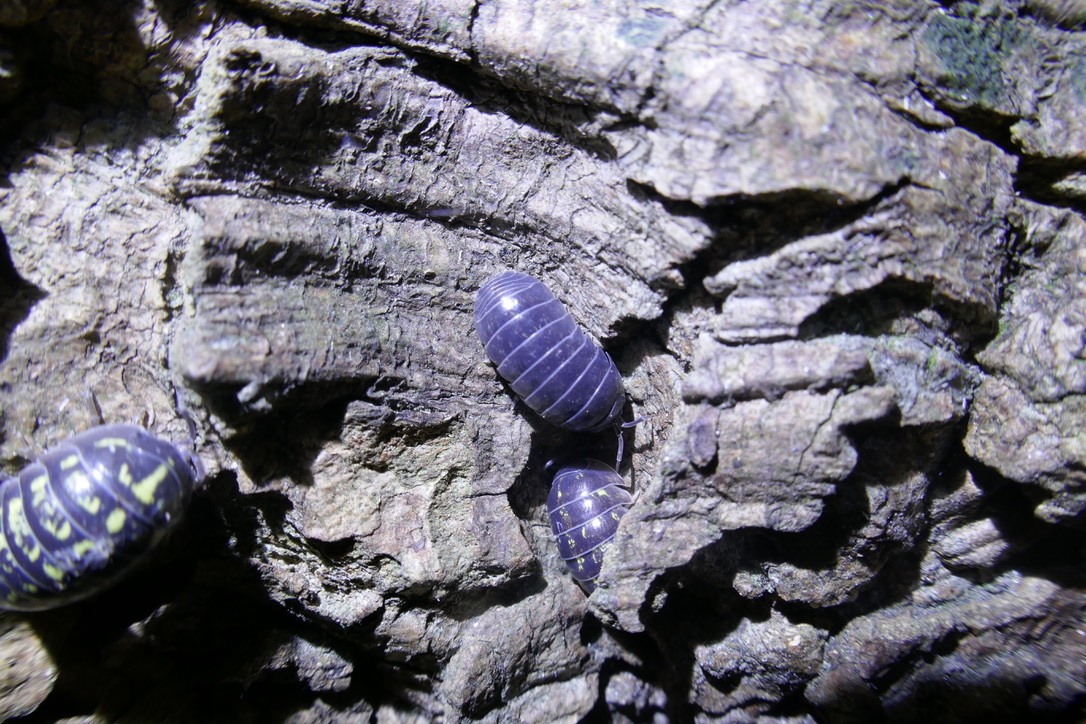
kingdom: Animalia
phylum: Arthropoda
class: Malacostraca
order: Isopoda
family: Armadillidiidae
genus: Armadillidium
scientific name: Armadillidium vulgare
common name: Common pill woodlouse
